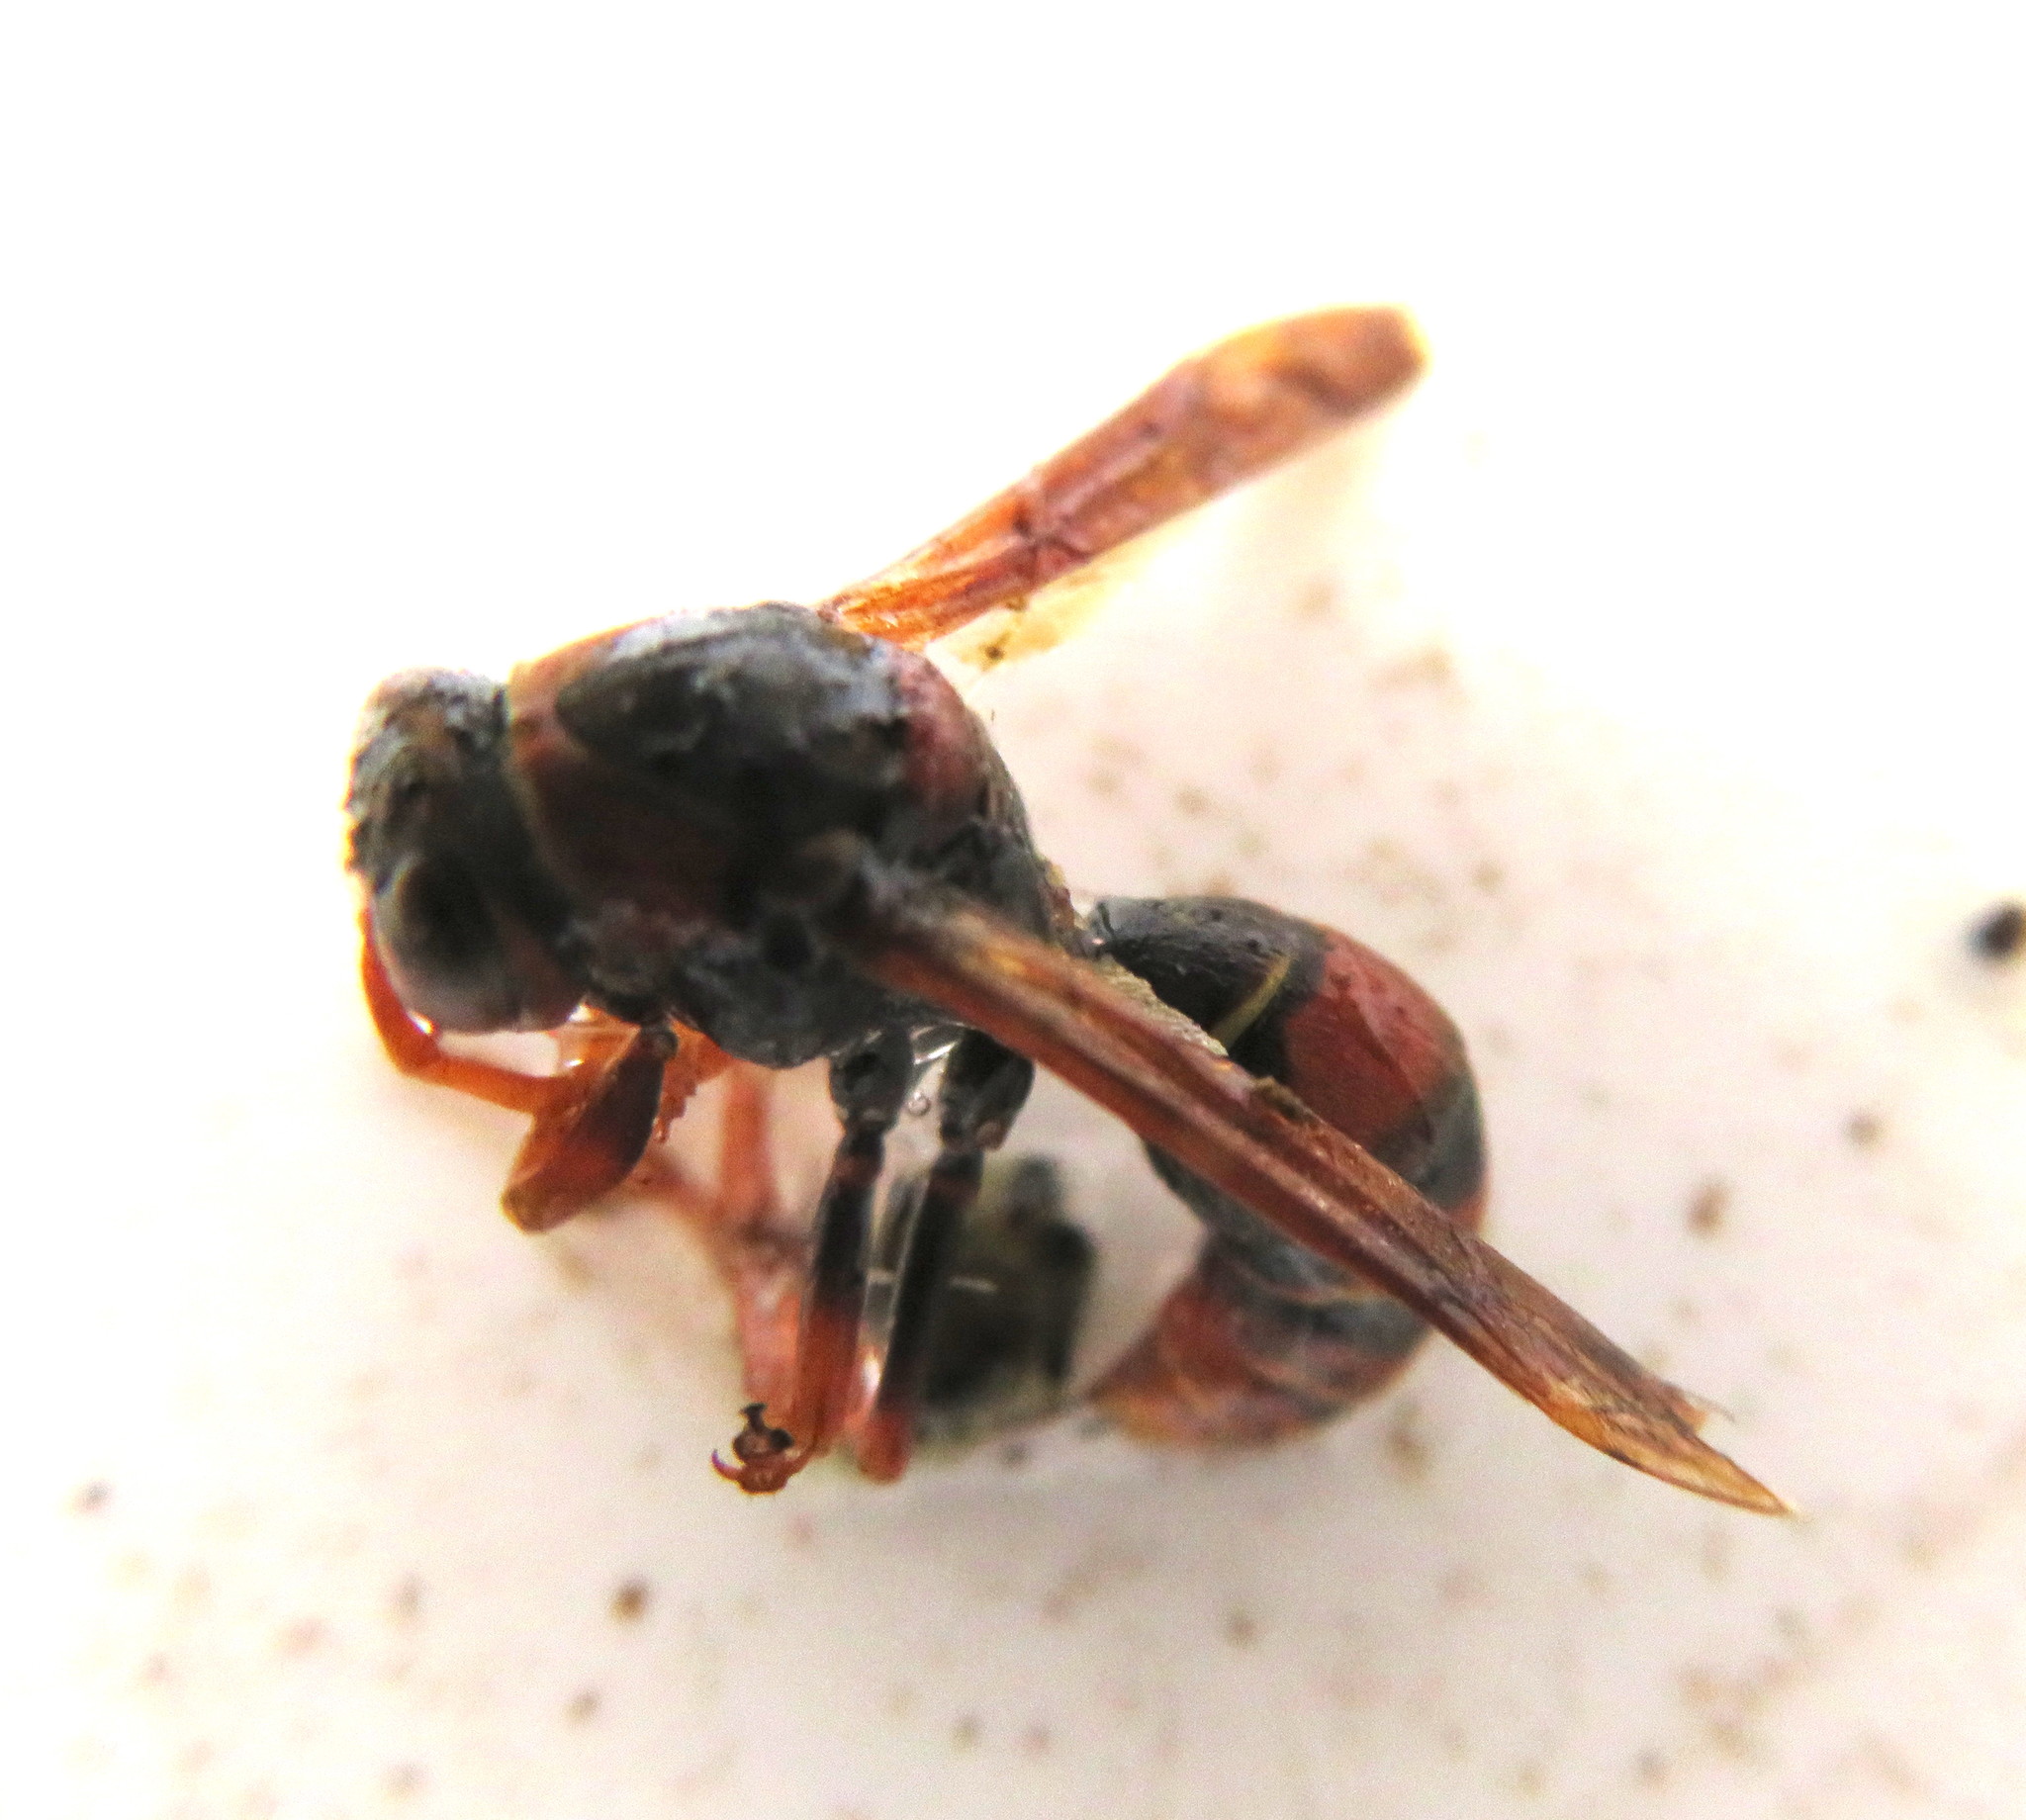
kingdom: Animalia
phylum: Arthropoda
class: Insecta
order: Hymenoptera
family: Eumenidae
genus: Polistes
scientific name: Polistes humilis
